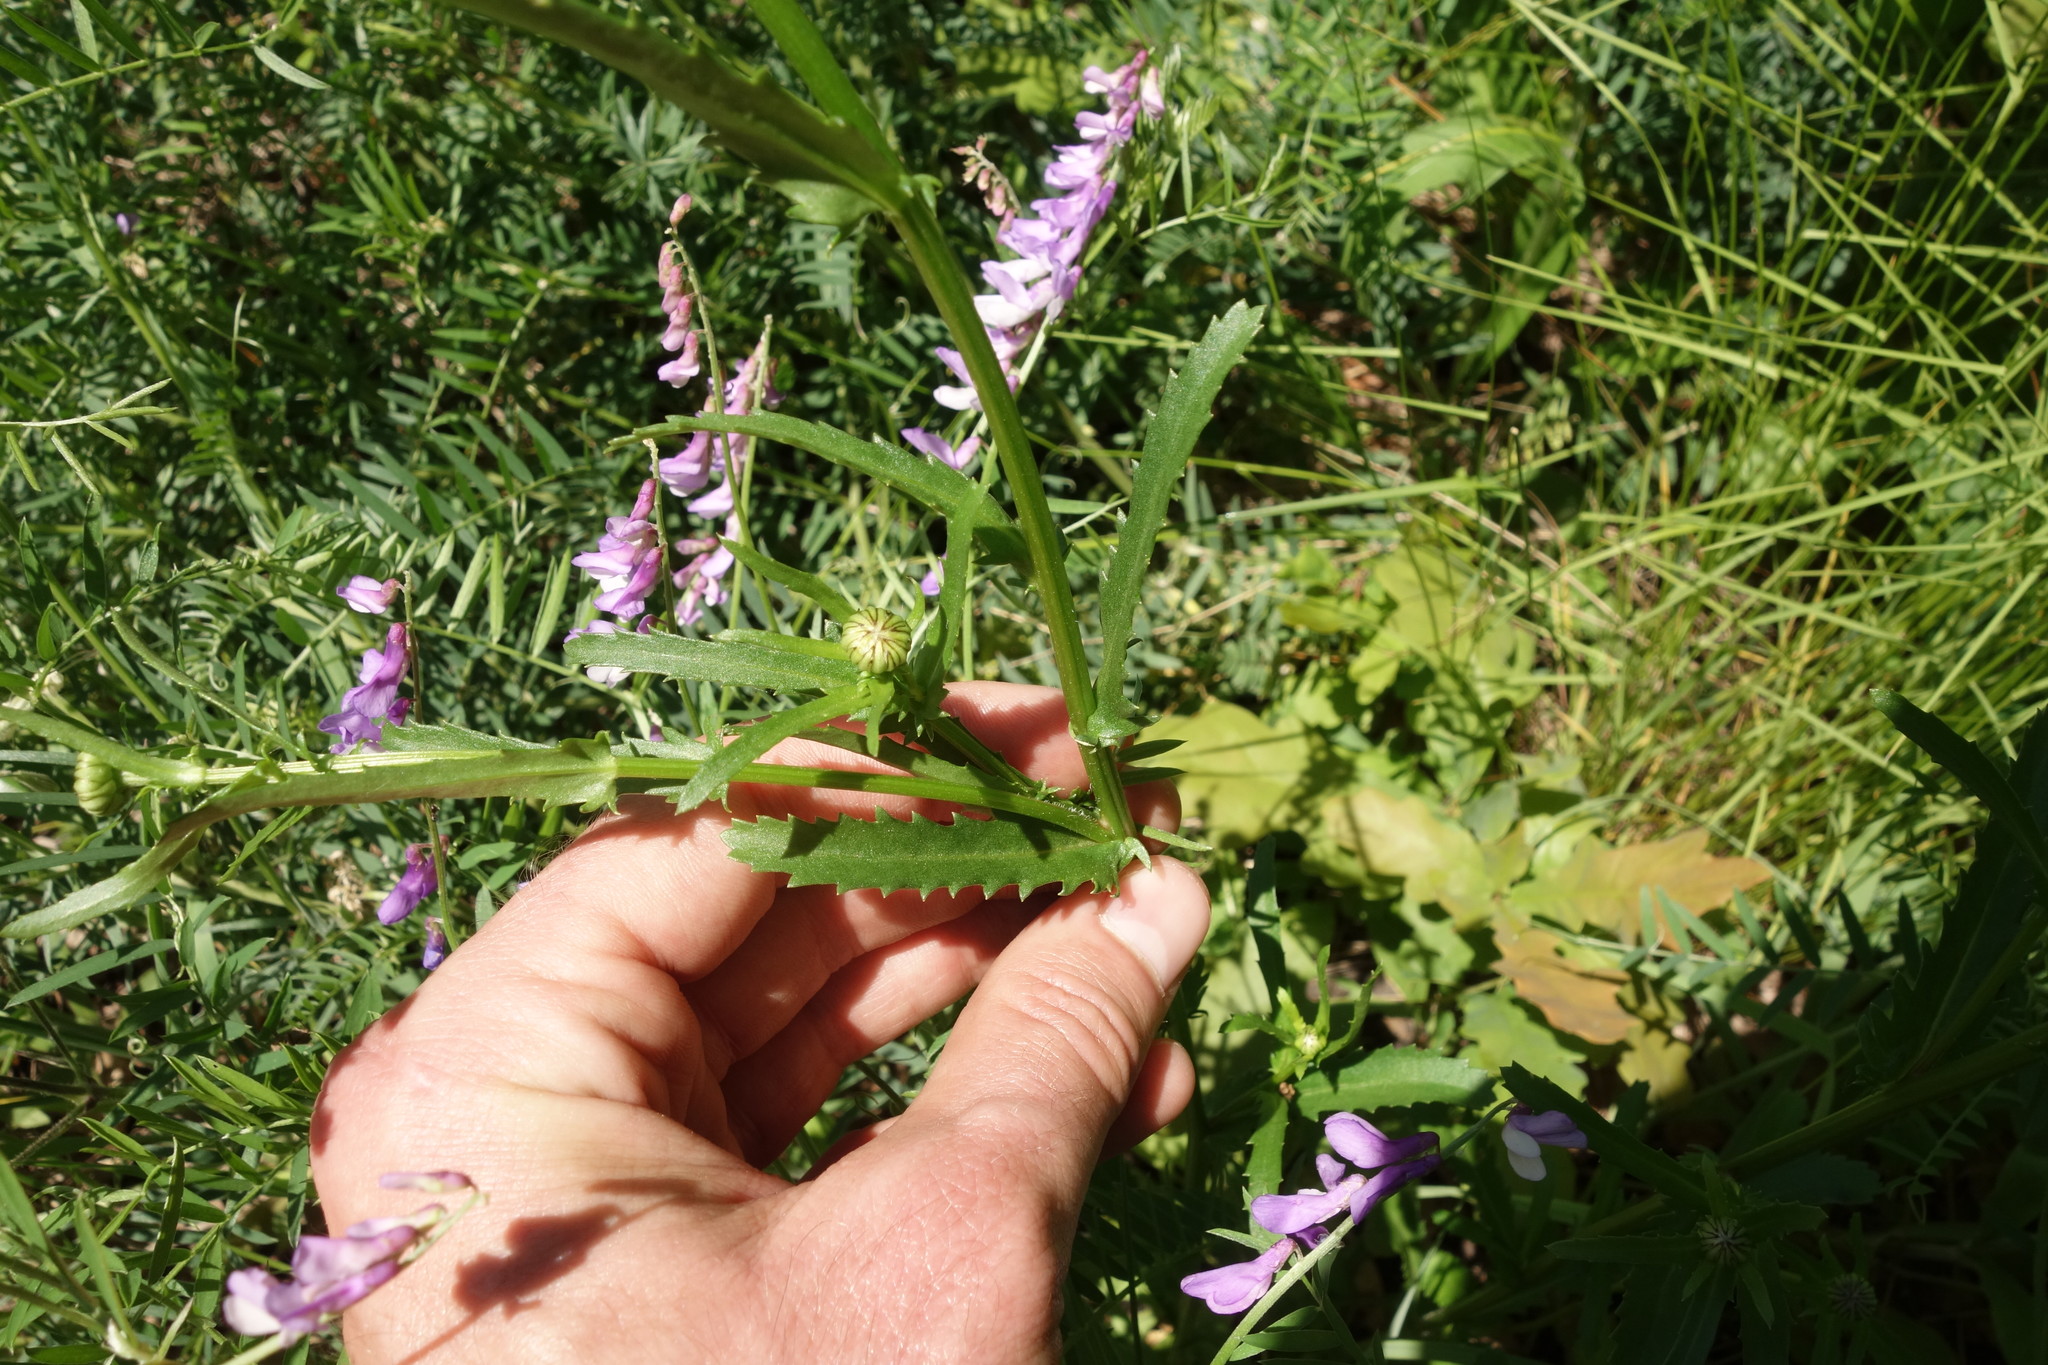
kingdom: Plantae
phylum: Tracheophyta
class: Magnoliopsida
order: Asterales
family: Asteraceae
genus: Leucanthemum
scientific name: Leucanthemum vulgare
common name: Oxeye daisy
